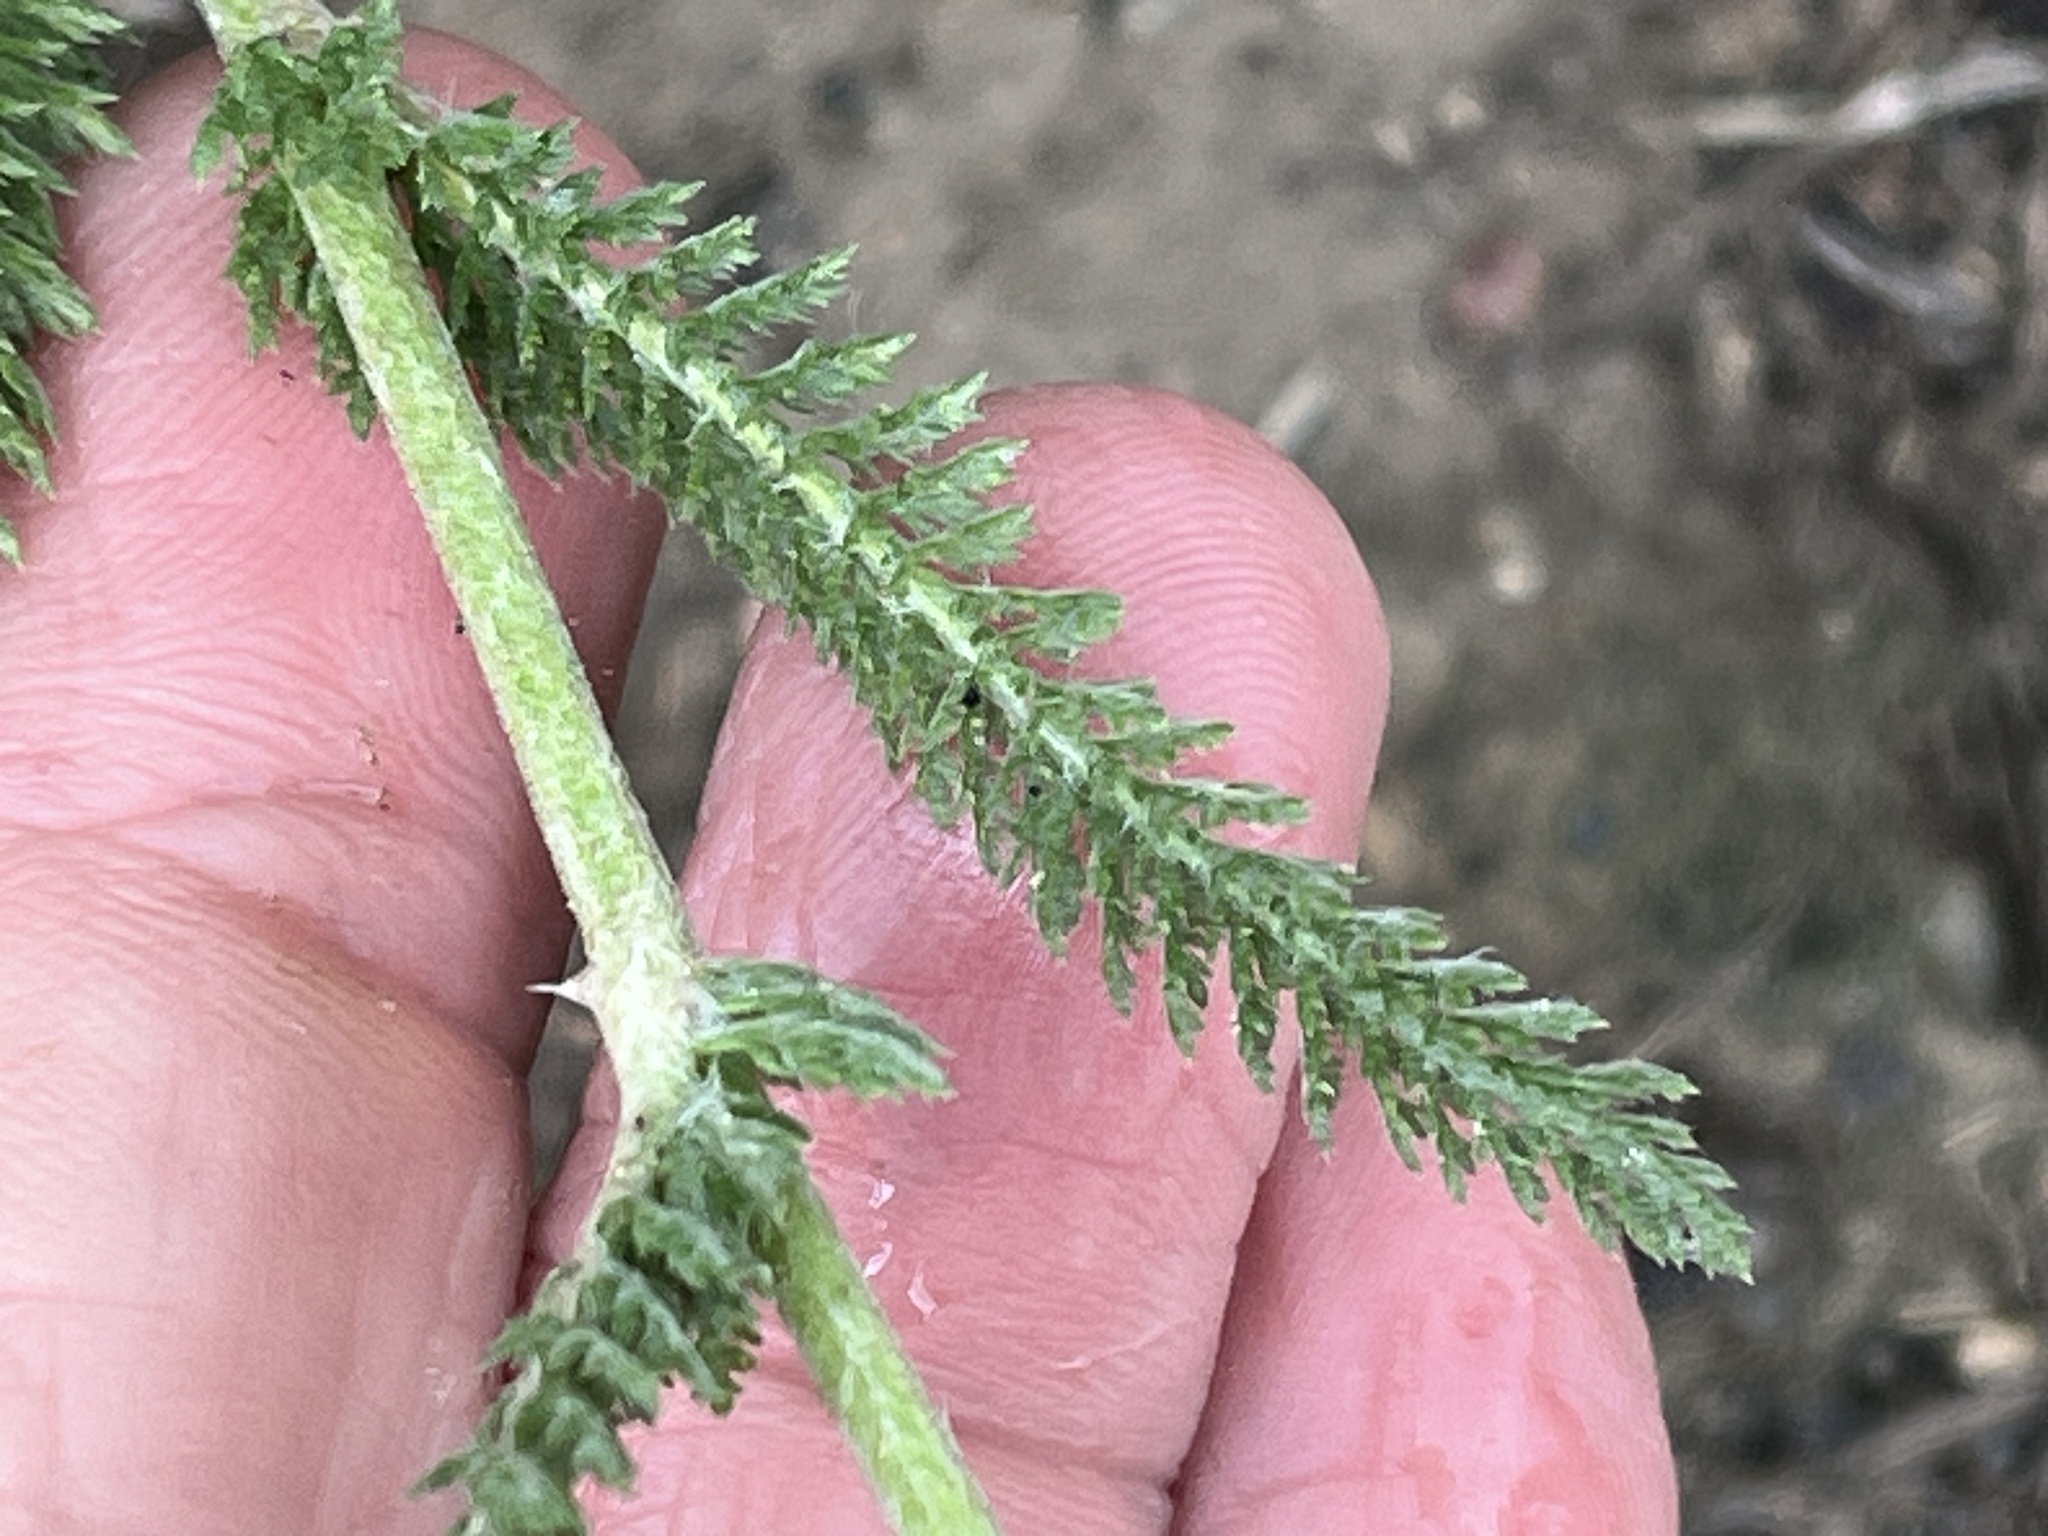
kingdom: Plantae
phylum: Tracheophyta
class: Magnoliopsida
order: Asterales
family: Asteraceae
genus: Achillea
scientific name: Achillea millefolium
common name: Yarrow
